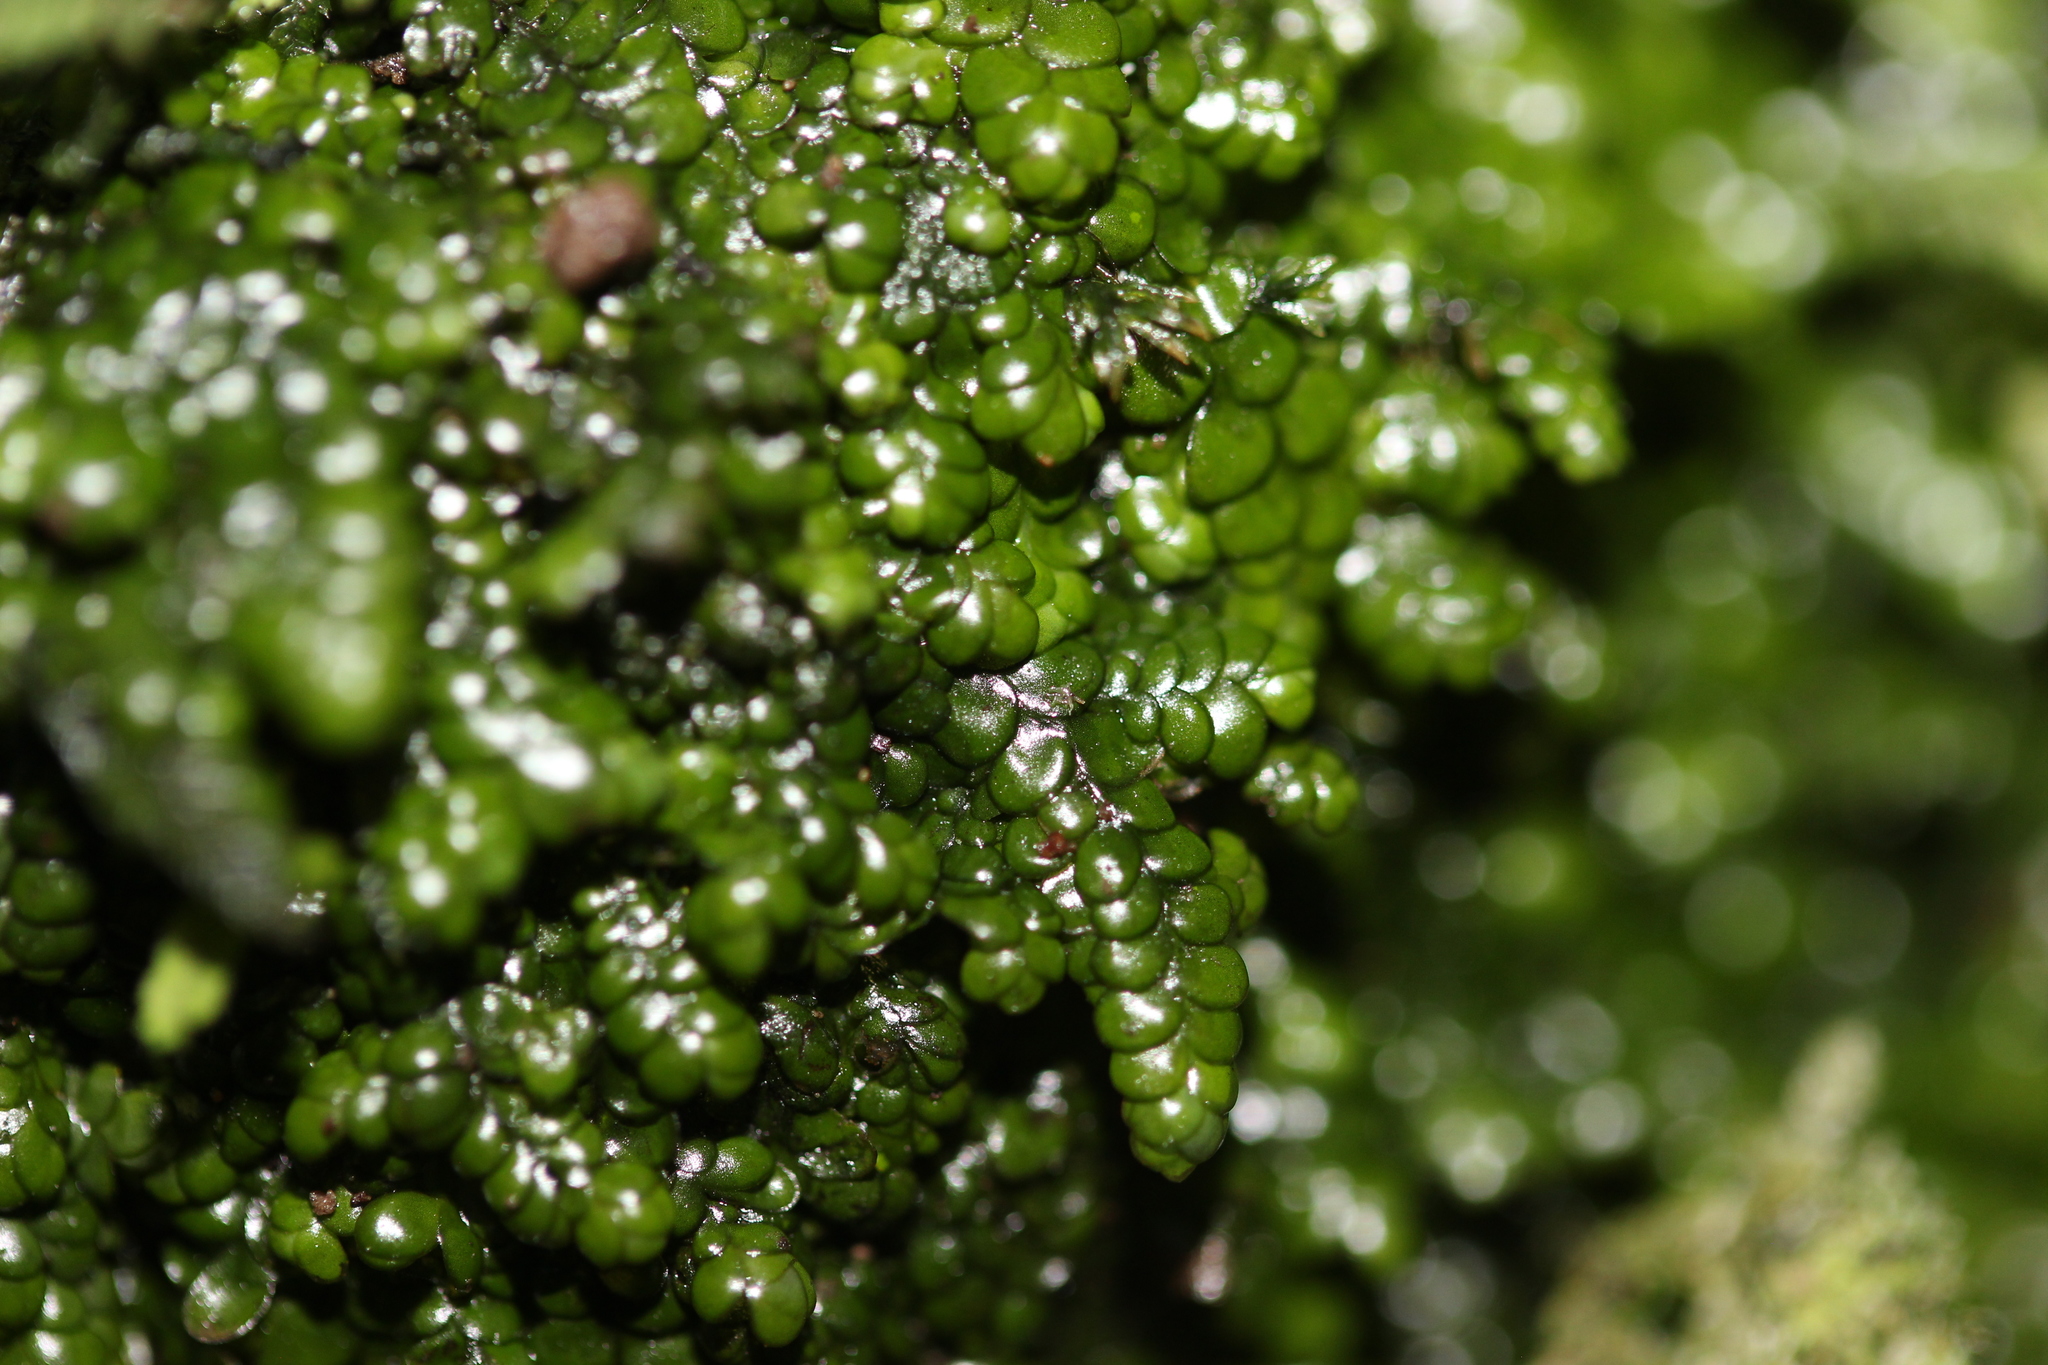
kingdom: Plantae
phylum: Marchantiophyta
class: Jungermanniopsida
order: Porellales
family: Radulaceae
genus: Radula
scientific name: Radula marginata
